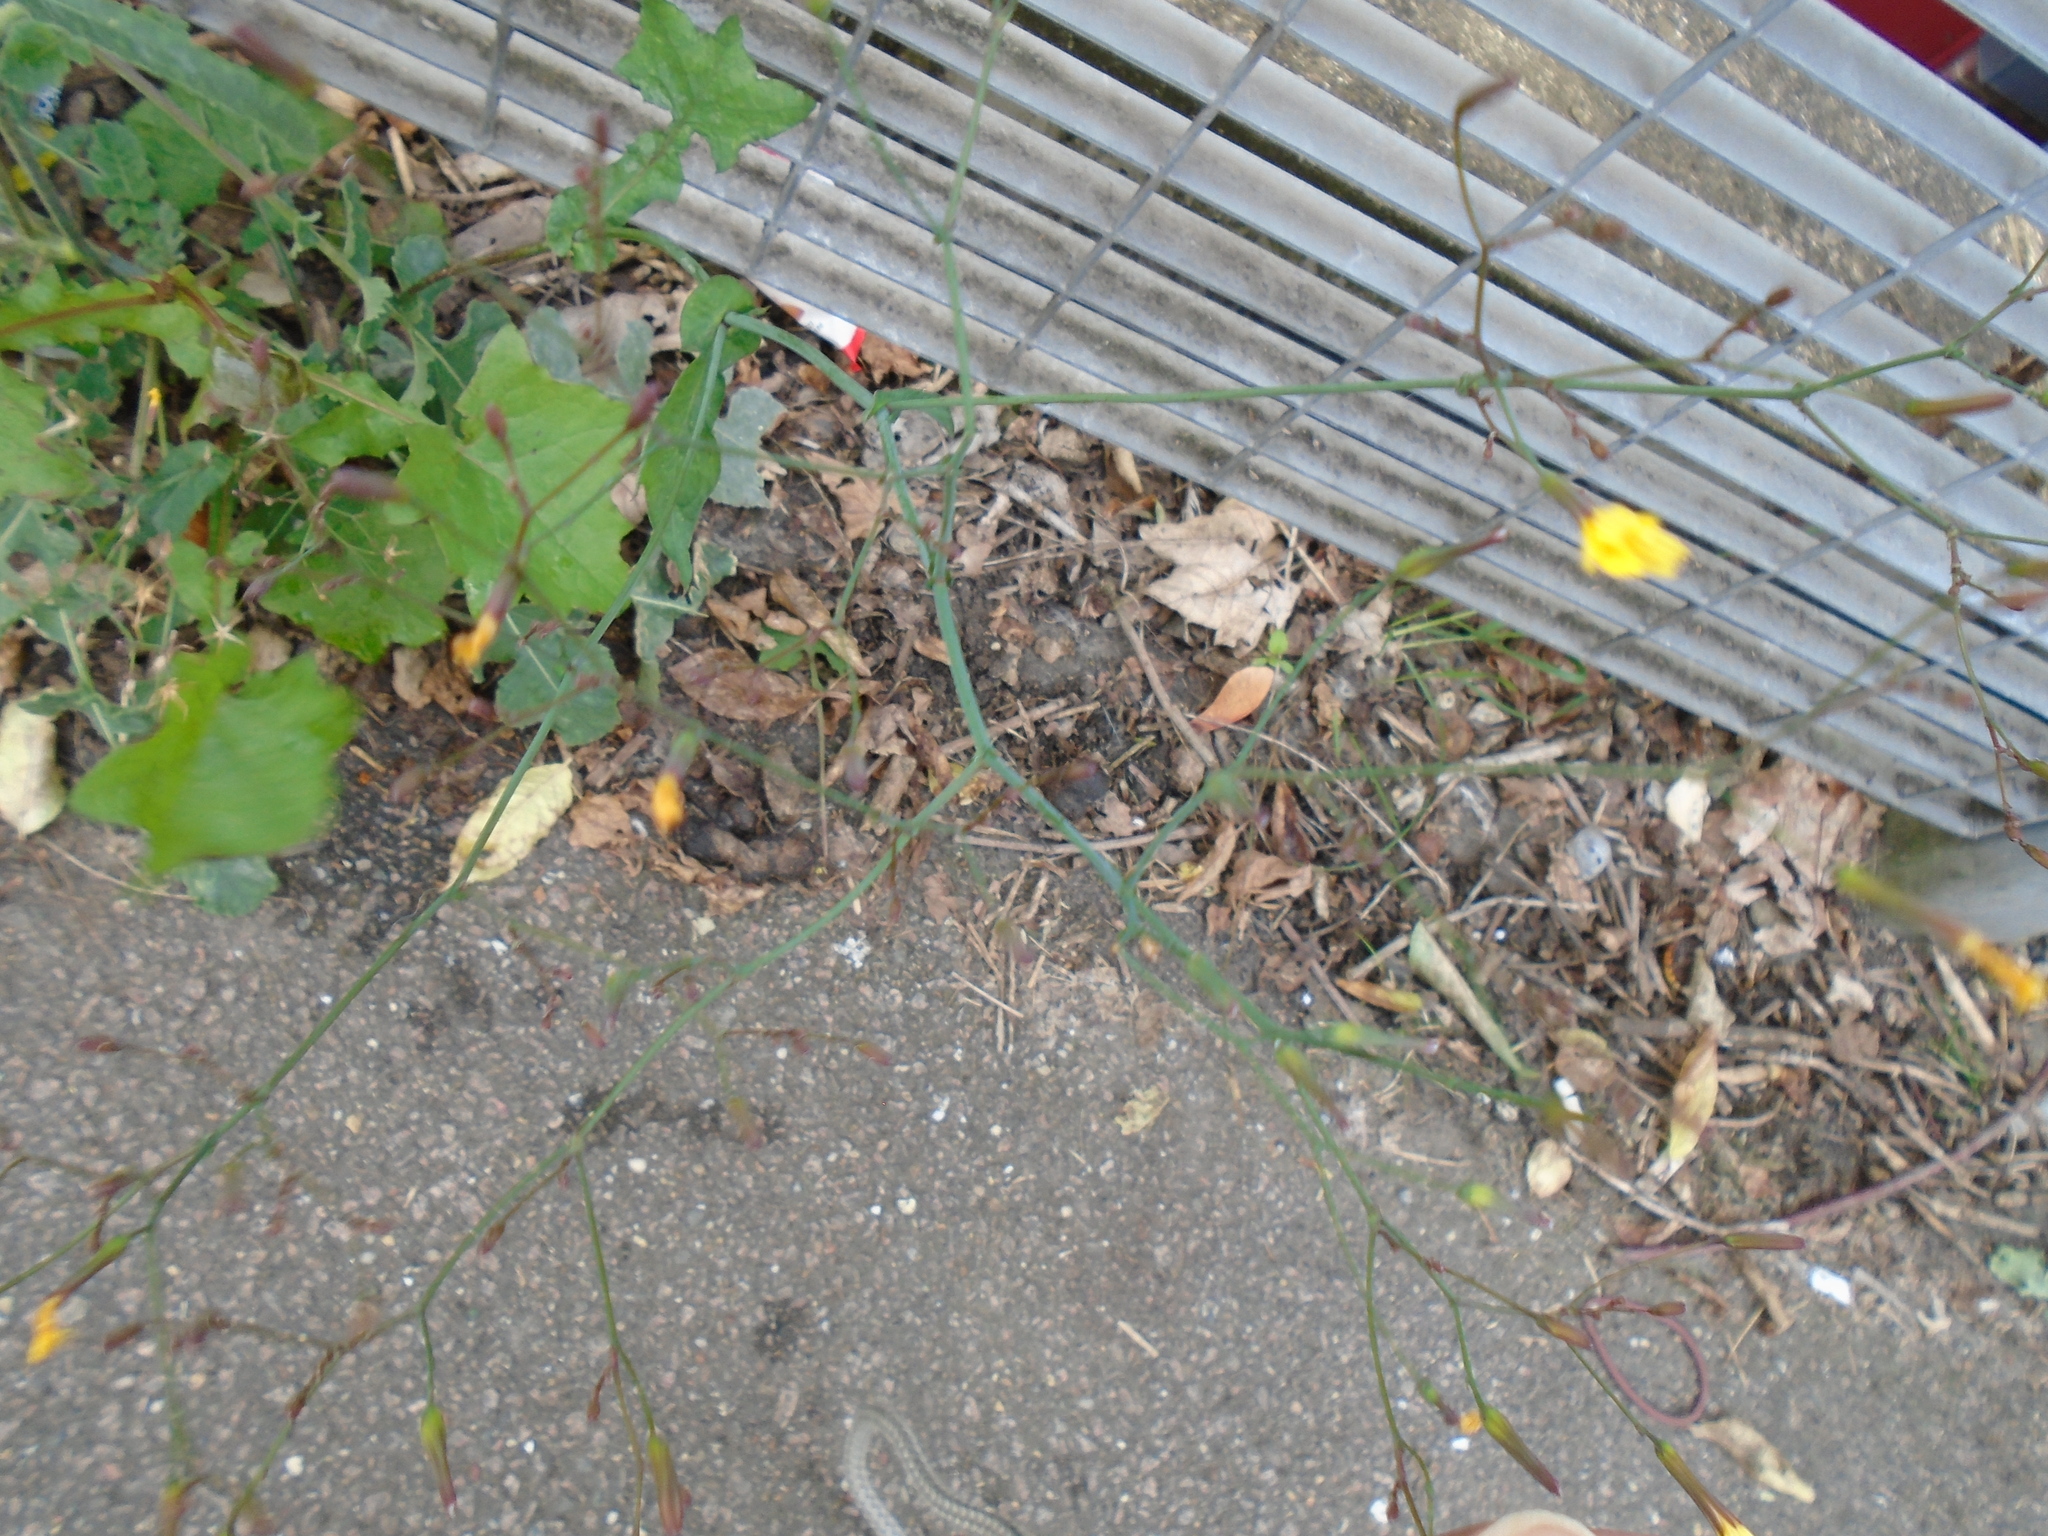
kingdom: Plantae
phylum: Tracheophyta
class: Magnoliopsida
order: Asterales
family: Asteraceae
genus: Mycelis
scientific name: Mycelis muralis
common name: Wall lettuce
